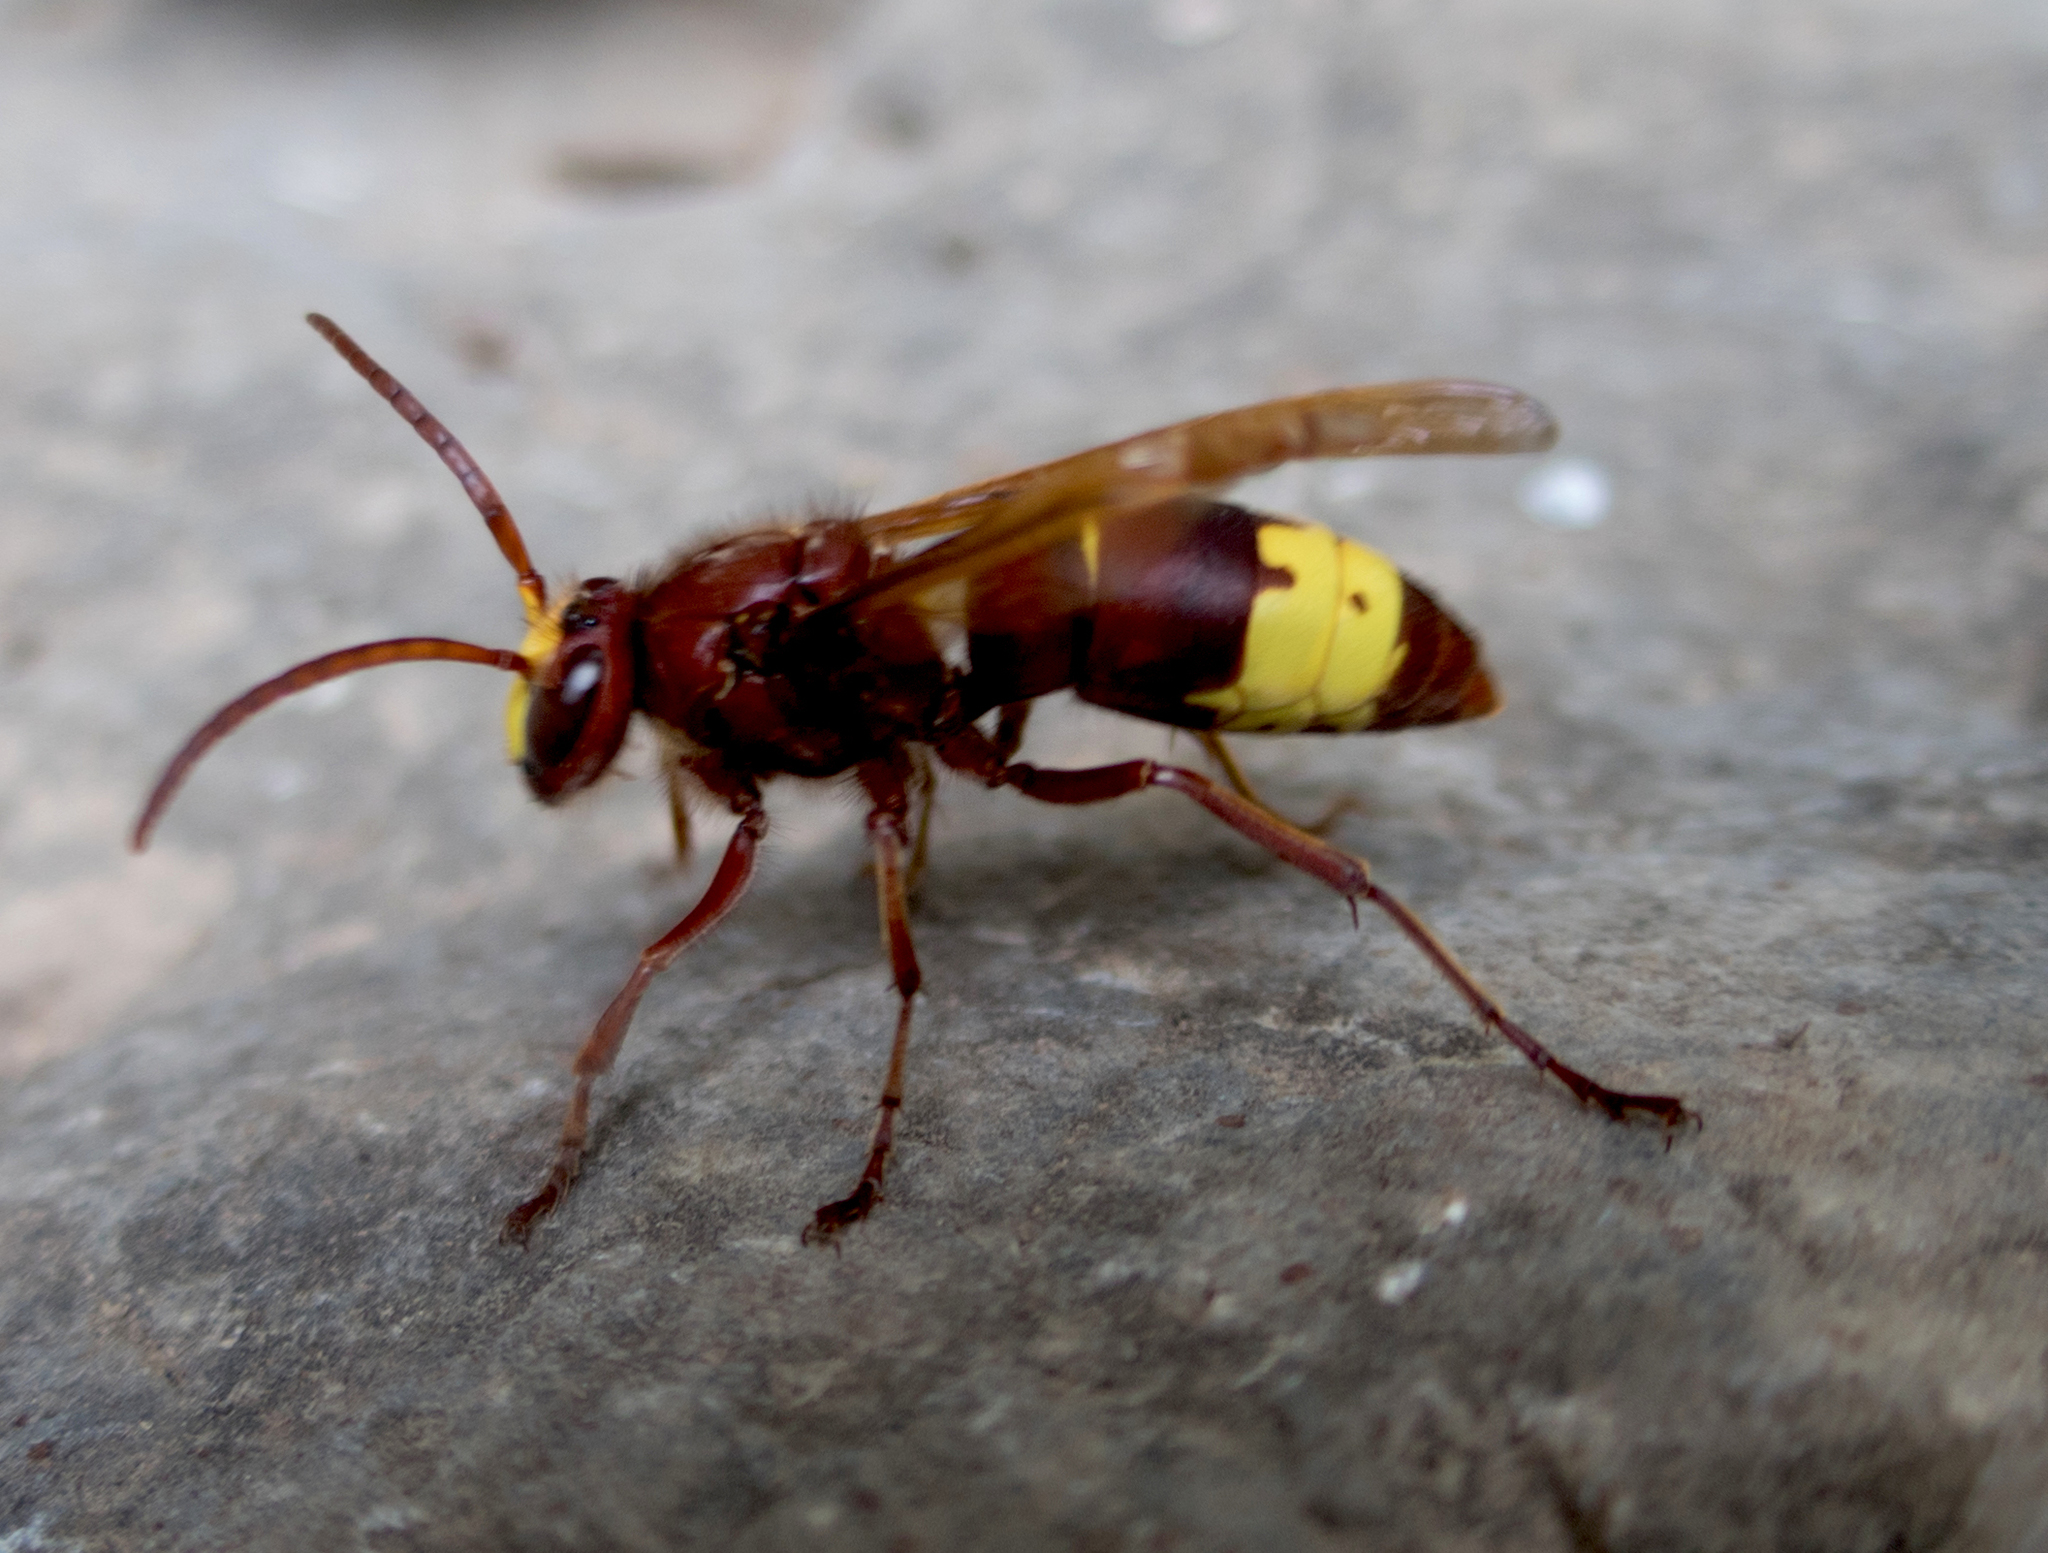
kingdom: Animalia
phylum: Arthropoda
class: Insecta
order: Hymenoptera
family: Vespidae
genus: Vespa
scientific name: Vespa orientalis
